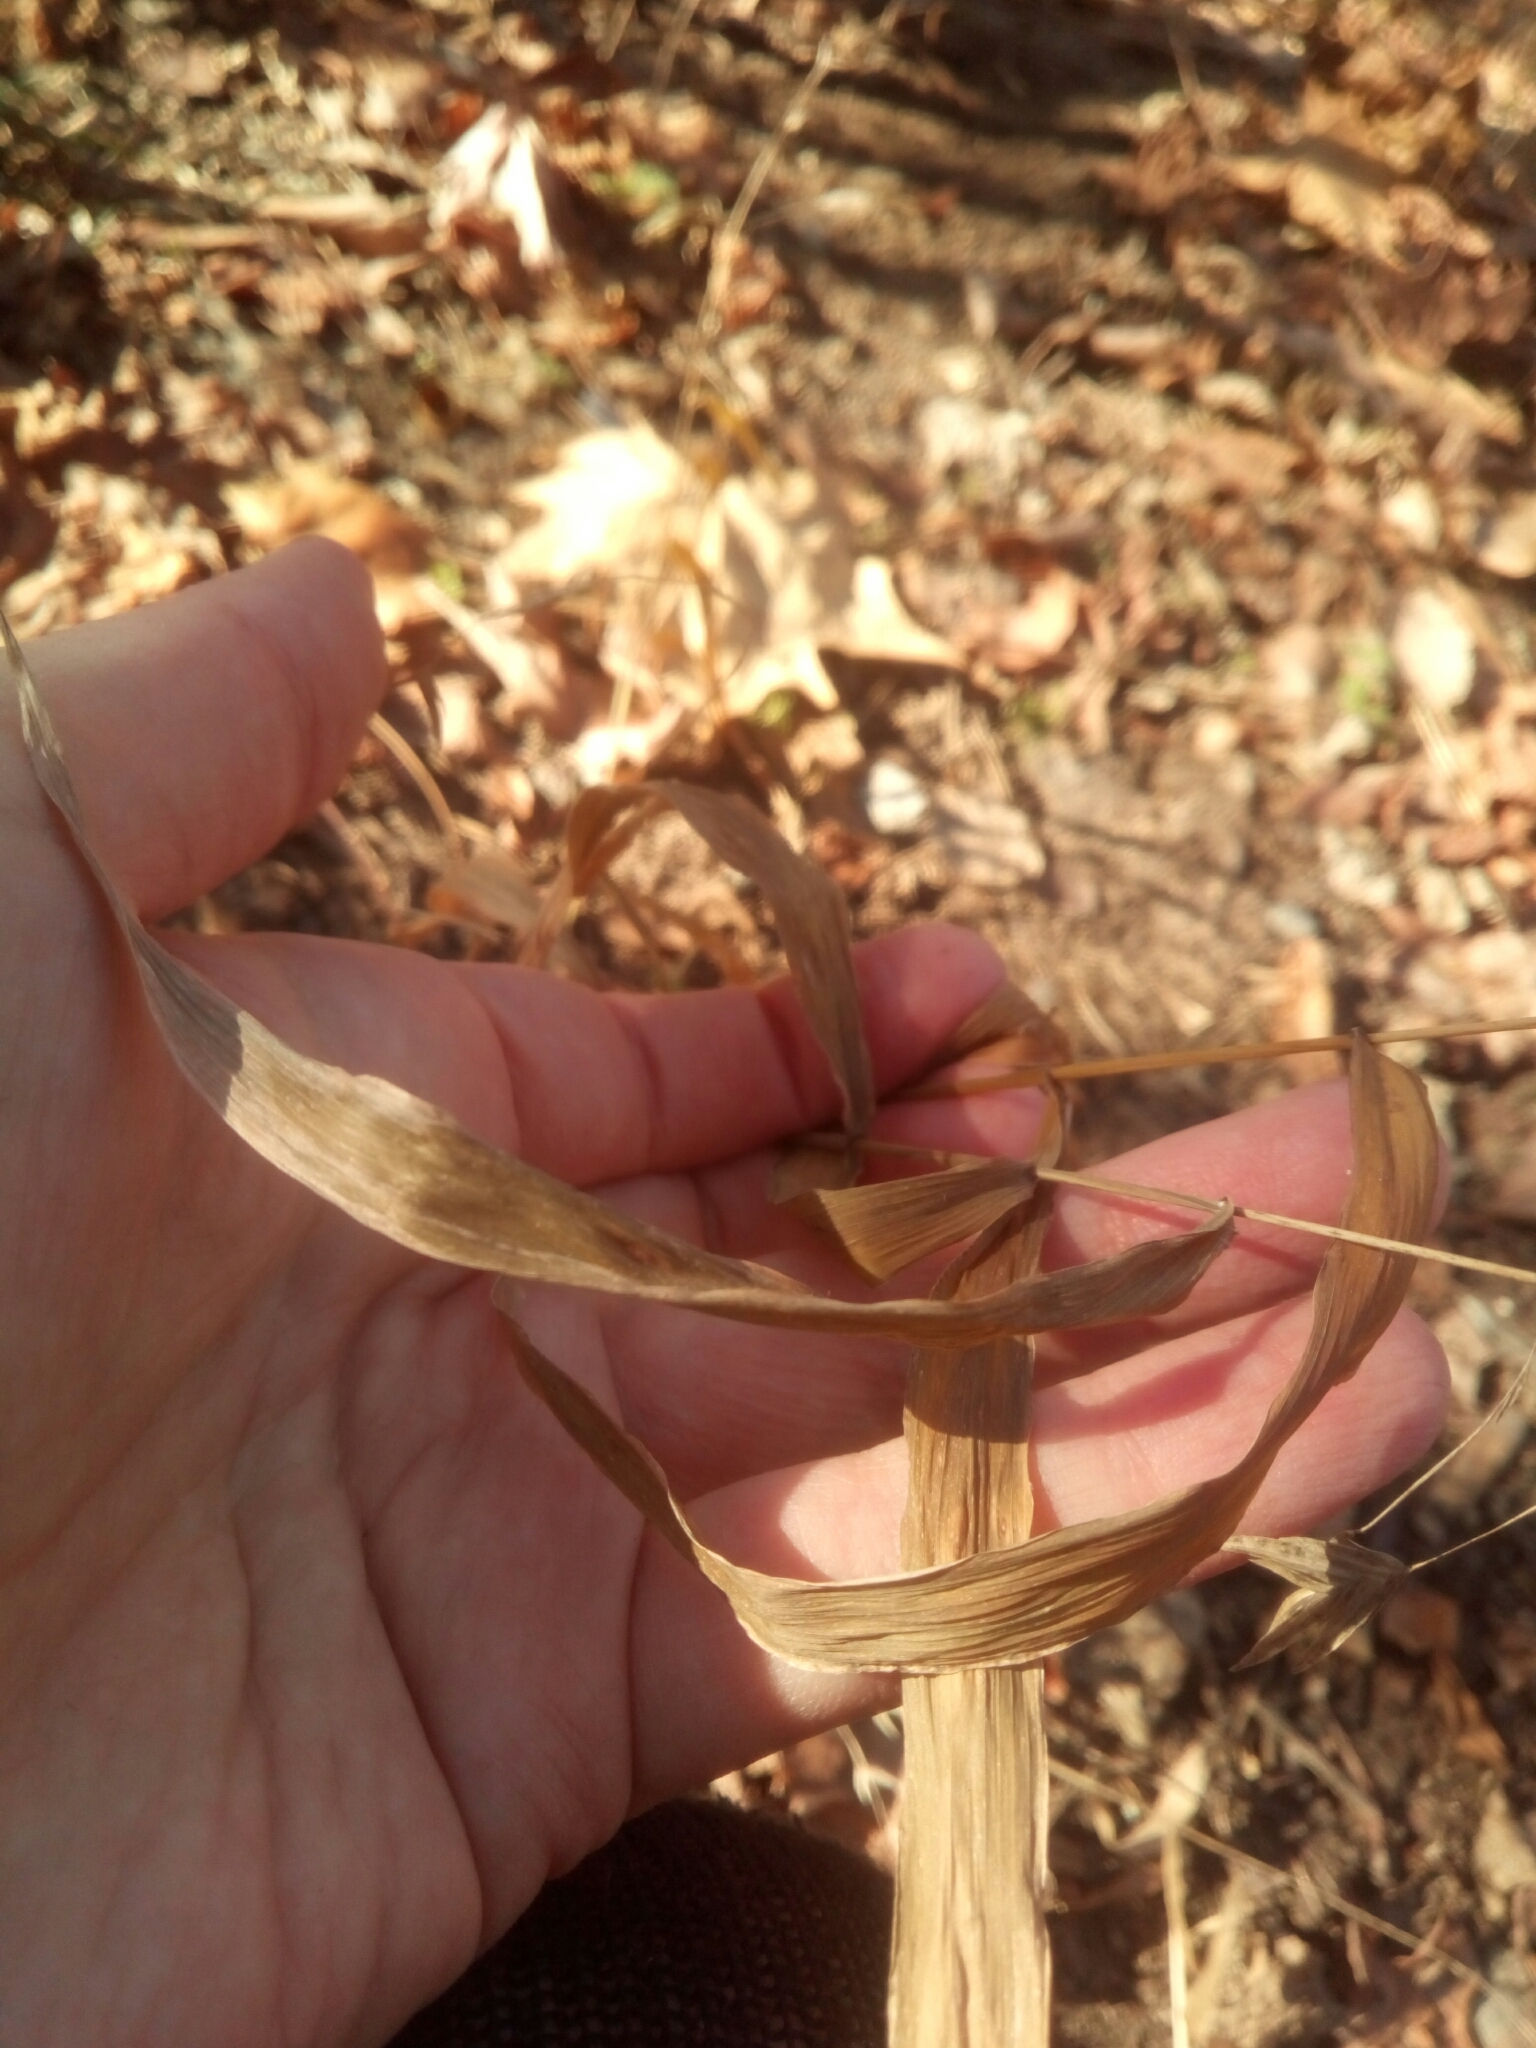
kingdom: Plantae
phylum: Tracheophyta
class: Liliopsida
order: Poales
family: Poaceae
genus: Chasmanthium
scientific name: Chasmanthium latifolium
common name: Broad-leaved chasmanthium
